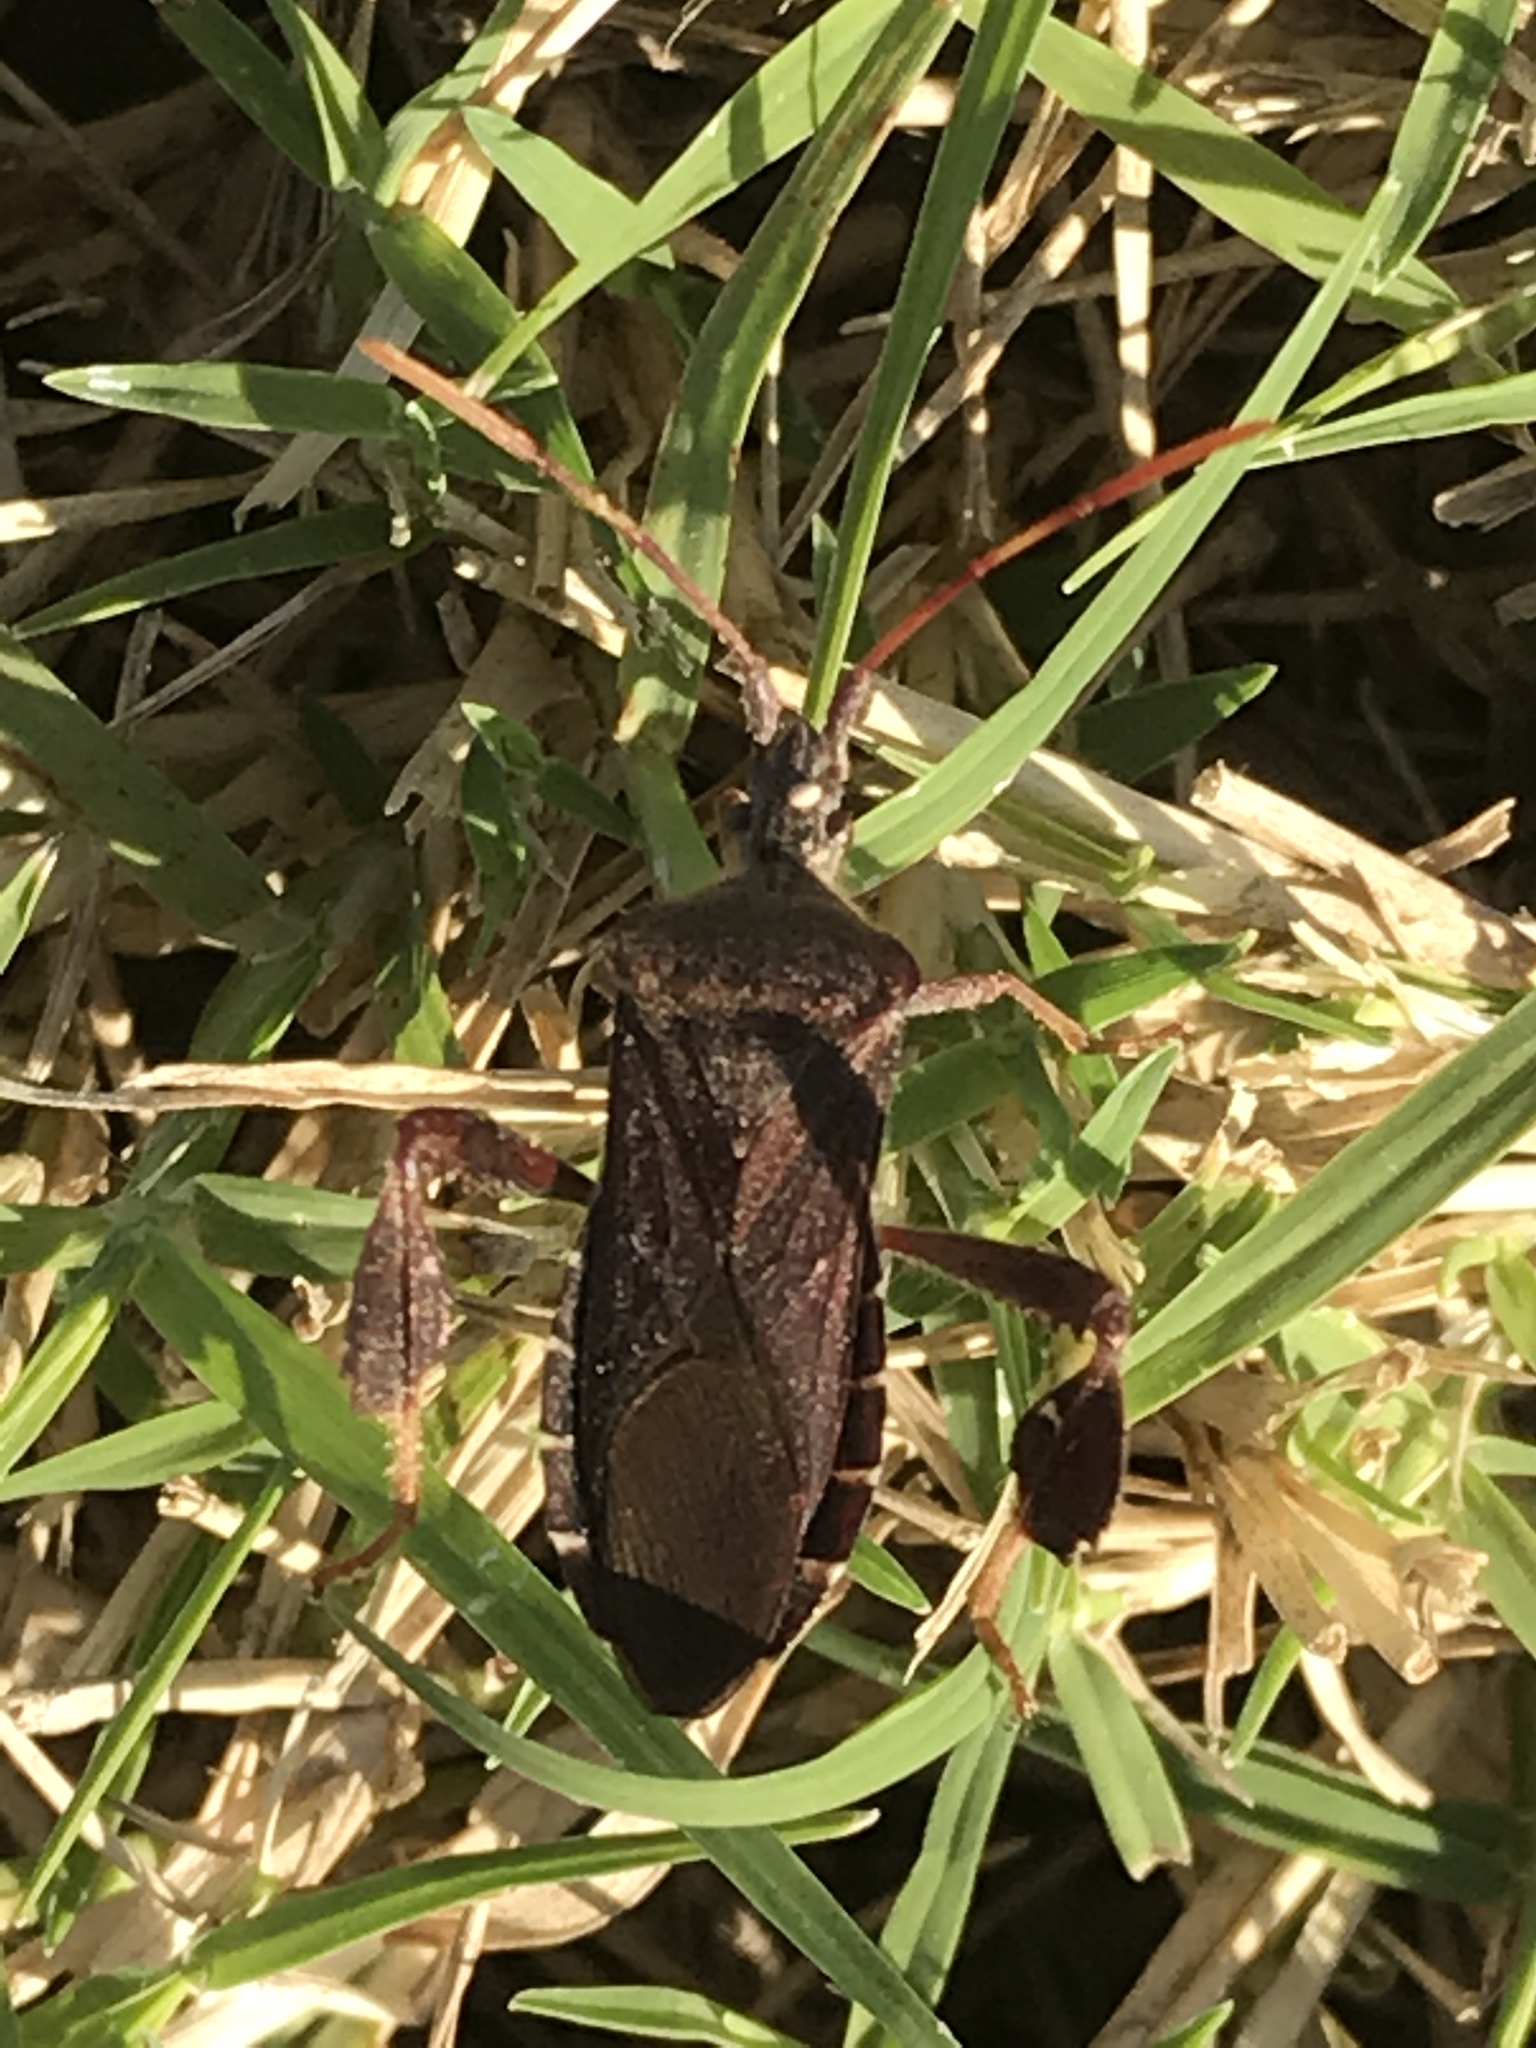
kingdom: Animalia
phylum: Arthropoda
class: Insecta
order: Hemiptera
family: Coreidae
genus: Leptoglossus
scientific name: Leptoglossus oppositus
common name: Northern leaf-footed bug
